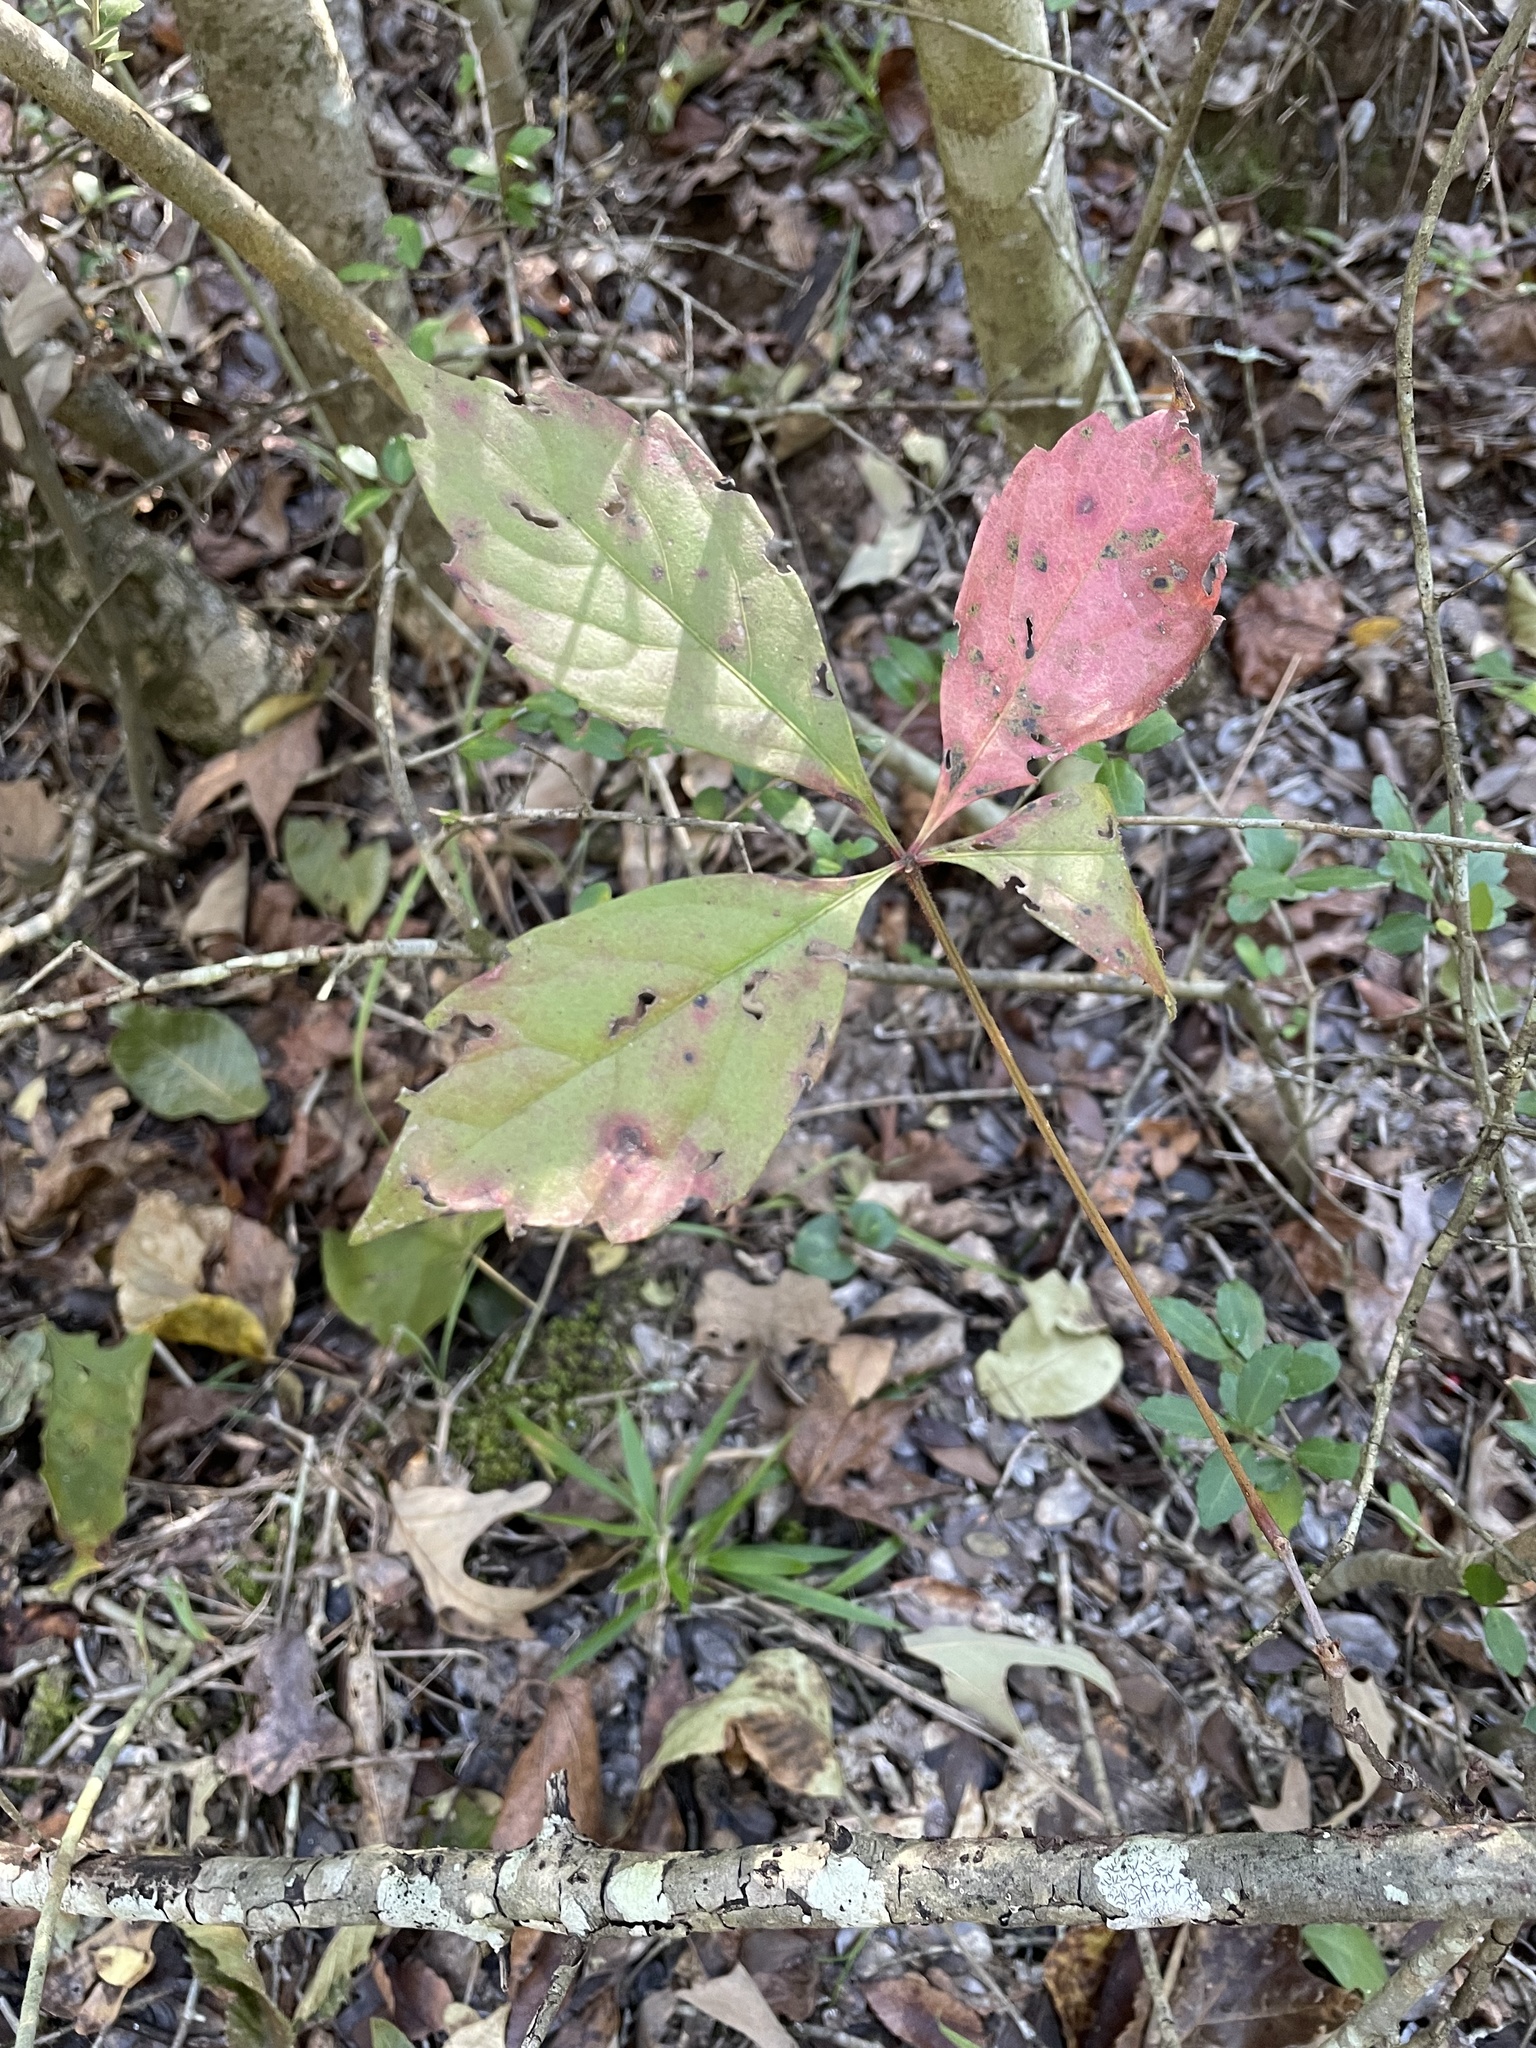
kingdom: Plantae
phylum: Tracheophyta
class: Magnoliopsida
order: Vitales
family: Vitaceae
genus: Parthenocissus
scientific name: Parthenocissus quinquefolia
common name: Virginia-creeper
